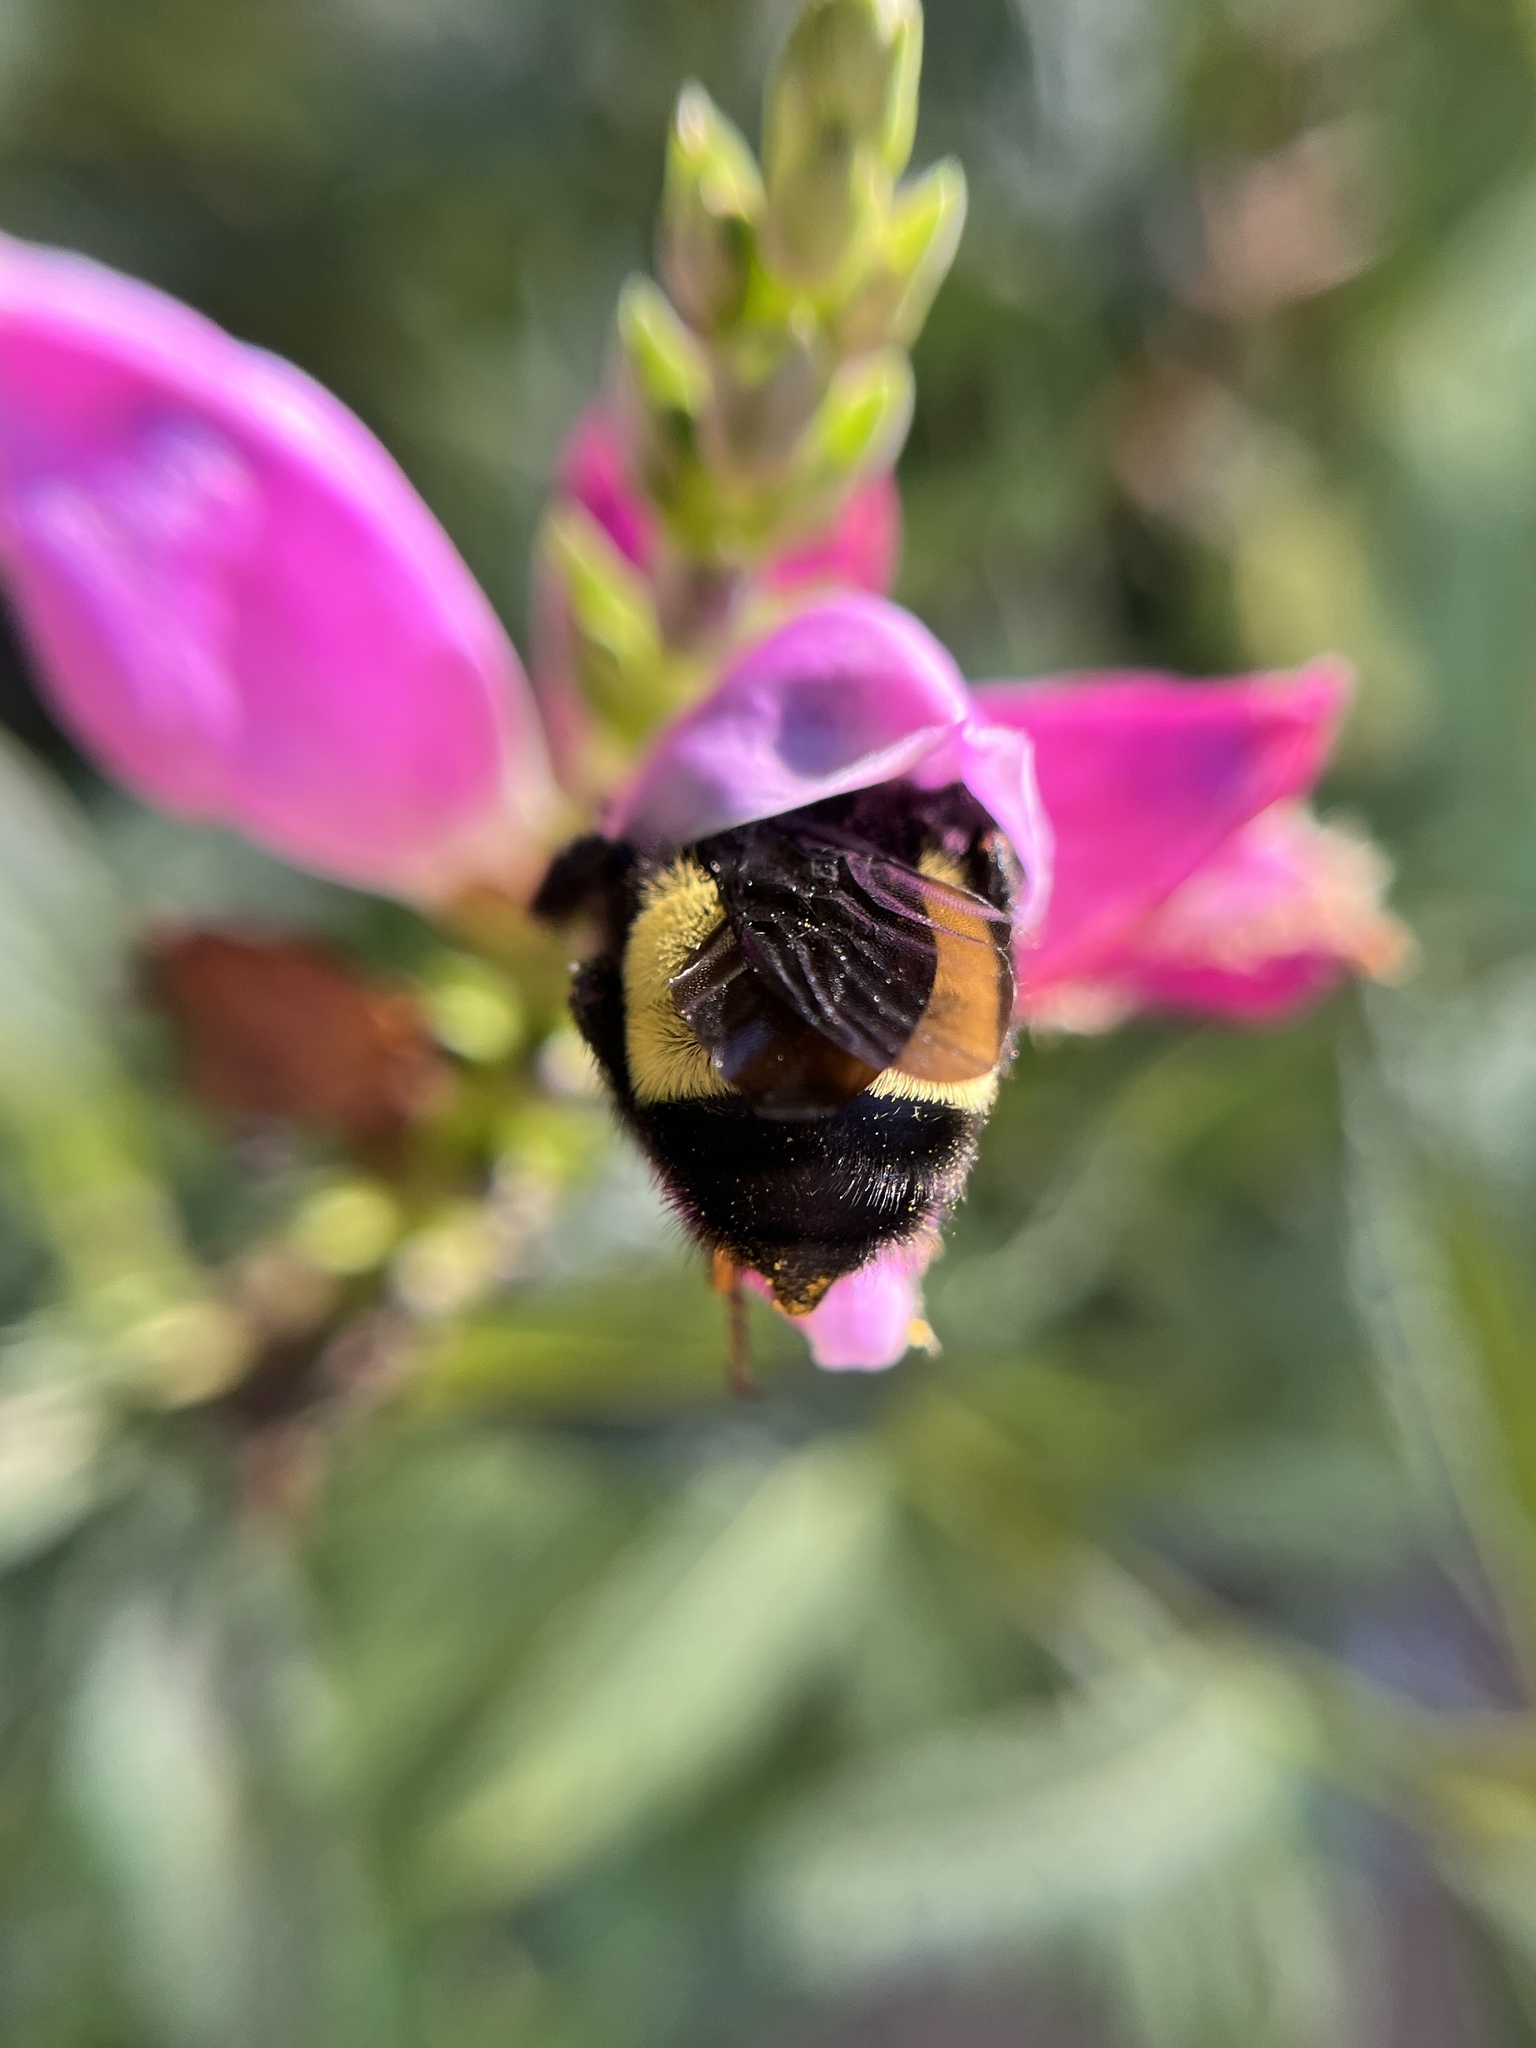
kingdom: Animalia
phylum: Arthropoda
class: Insecta
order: Hymenoptera
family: Apidae
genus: Bombus
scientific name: Bombus pensylvanicus
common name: Bumble bee
